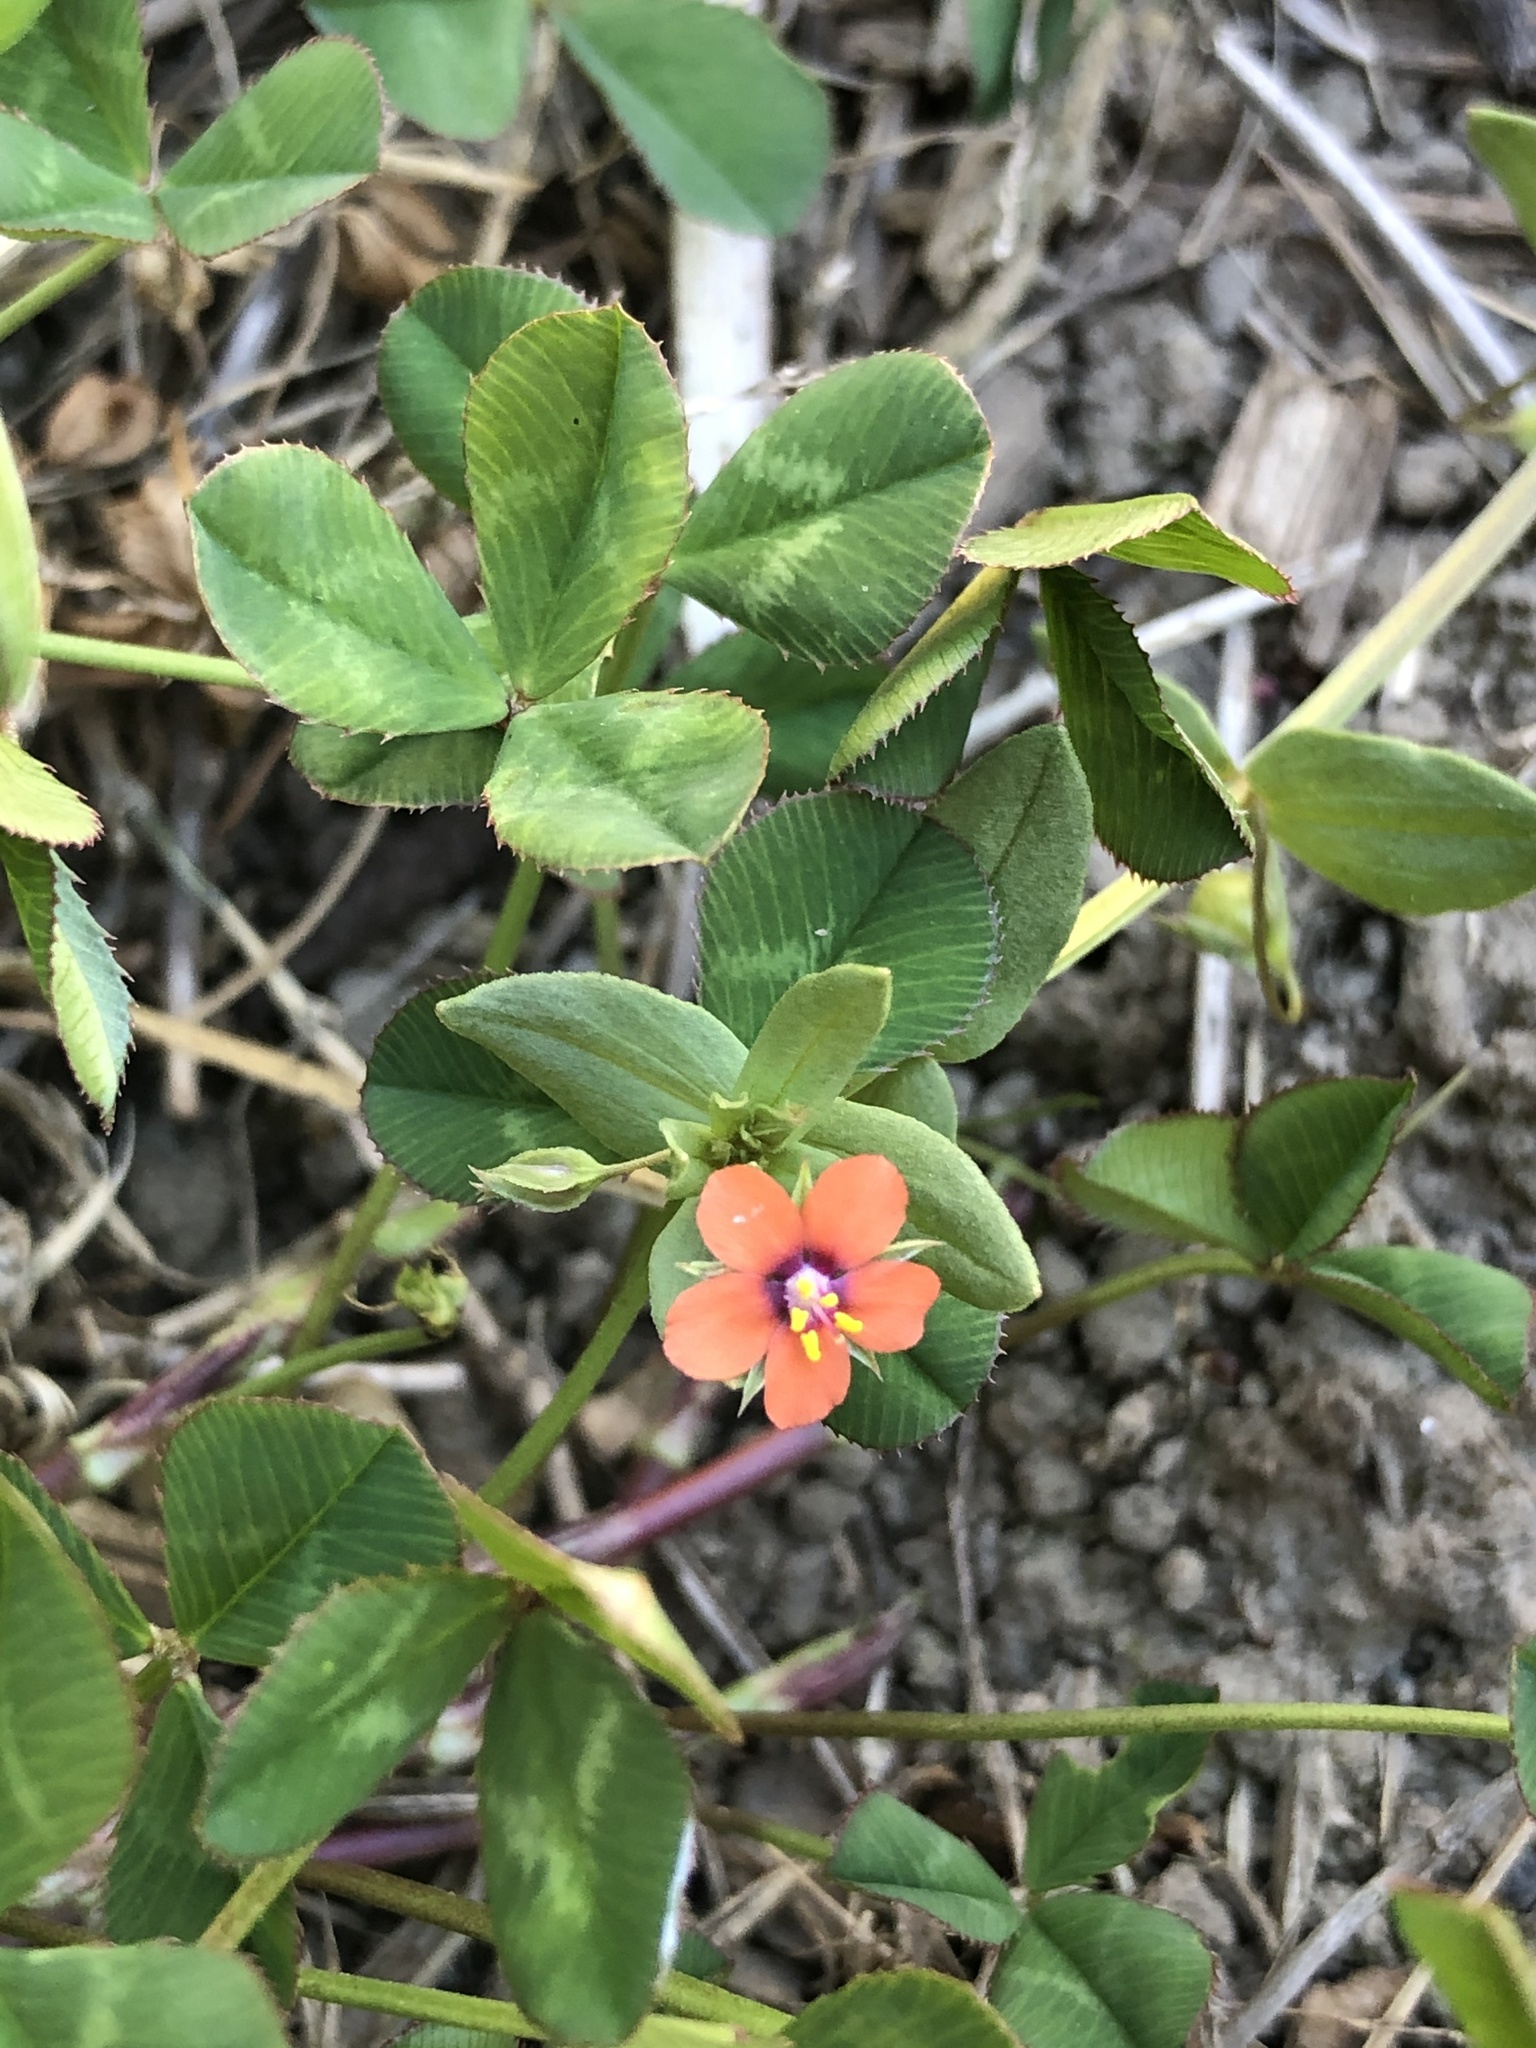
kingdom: Plantae
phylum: Tracheophyta
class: Magnoliopsida
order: Ericales
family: Primulaceae
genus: Lysimachia
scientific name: Lysimachia arvensis
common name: Scarlet pimpernel
